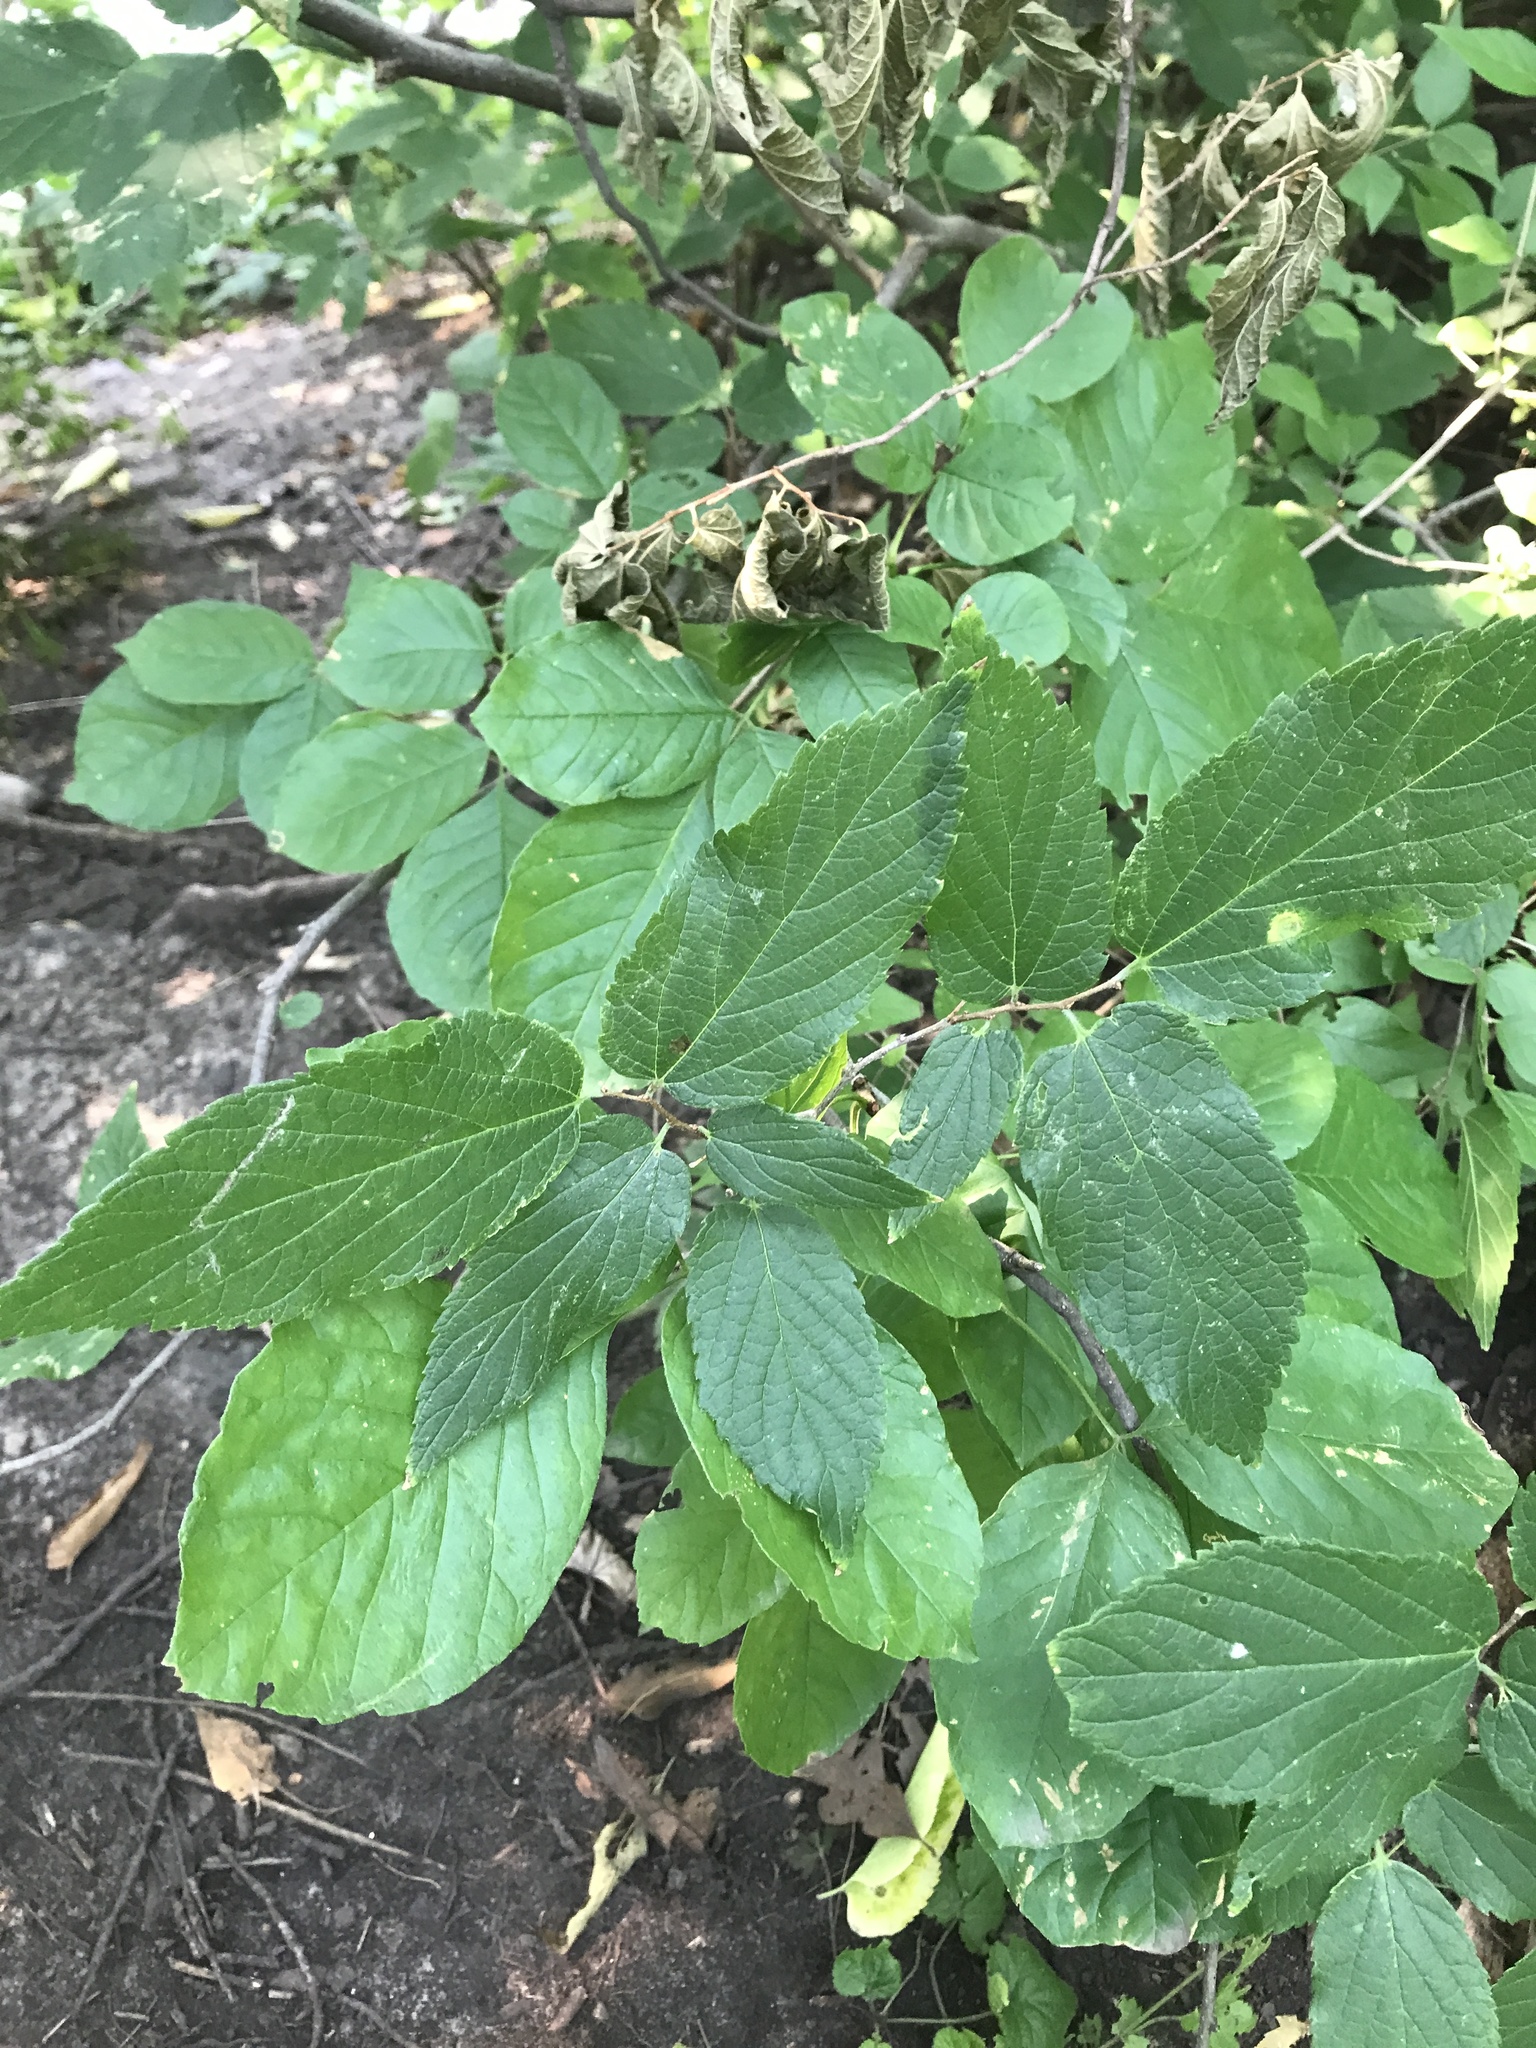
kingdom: Plantae
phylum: Tracheophyta
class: Magnoliopsida
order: Rosales
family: Cannabaceae
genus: Celtis
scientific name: Celtis reticulata
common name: Netleaf hackberry
